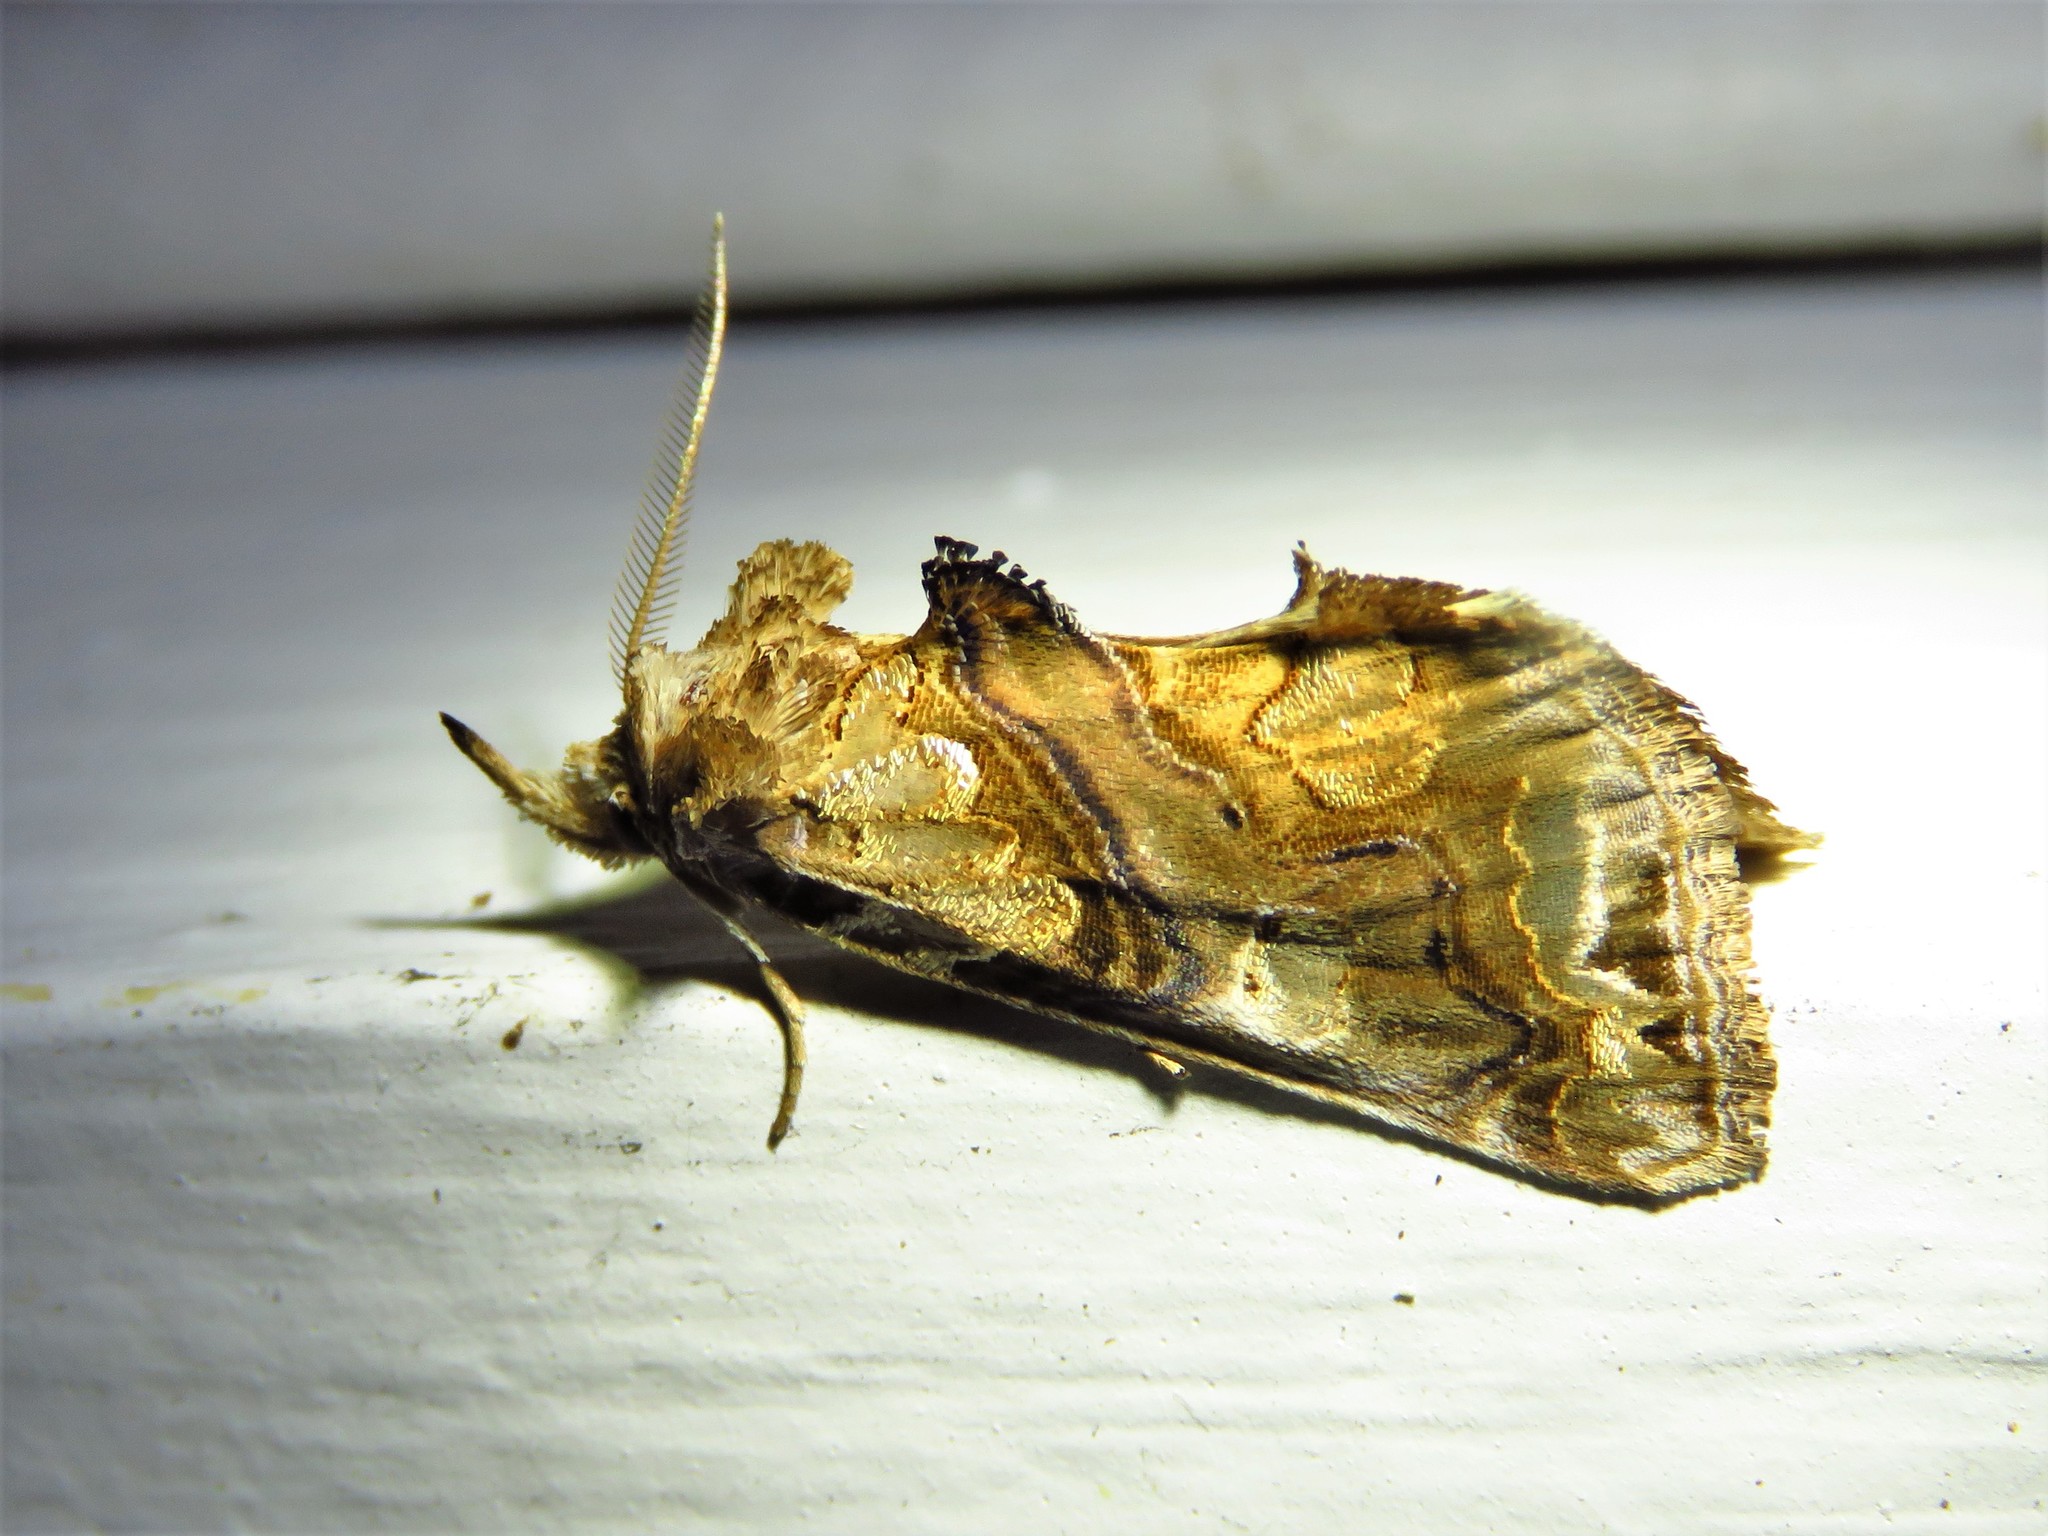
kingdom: Animalia
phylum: Arthropoda
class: Insecta
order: Lepidoptera
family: Erebidae
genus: Plusiodonta
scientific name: Plusiodonta compressipalpis
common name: Moonseed moth
